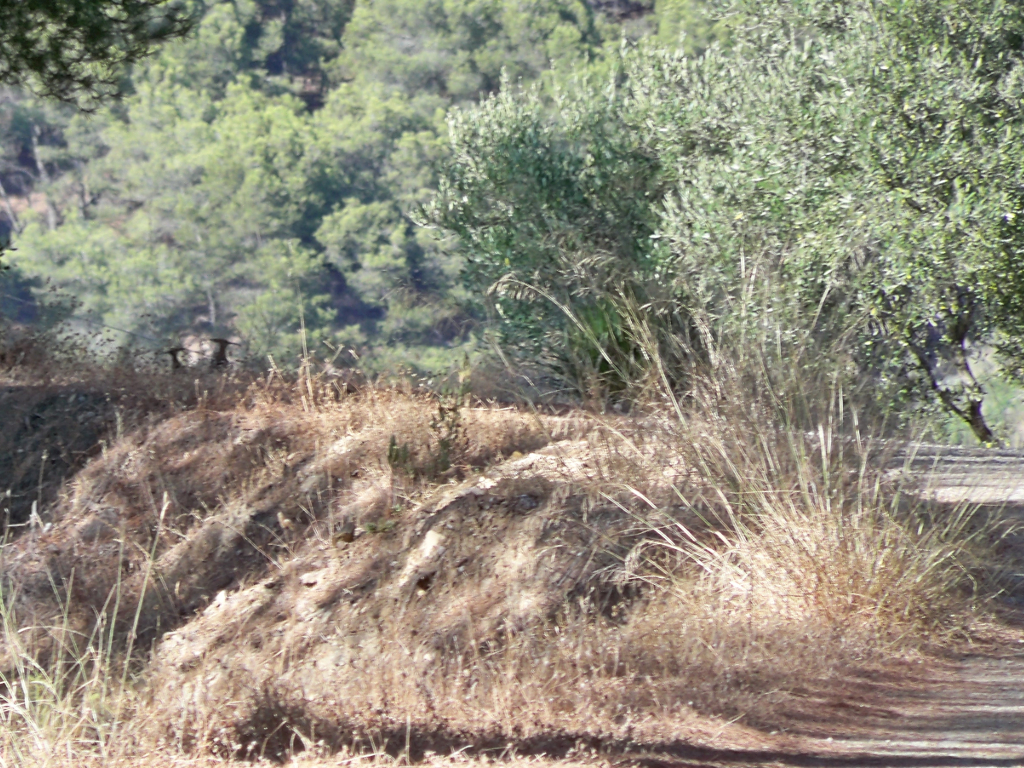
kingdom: Animalia
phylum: Chordata
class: Aves
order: Bucerotiformes
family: Upupidae
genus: Upupa
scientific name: Upupa epops
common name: Eurasian hoopoe
